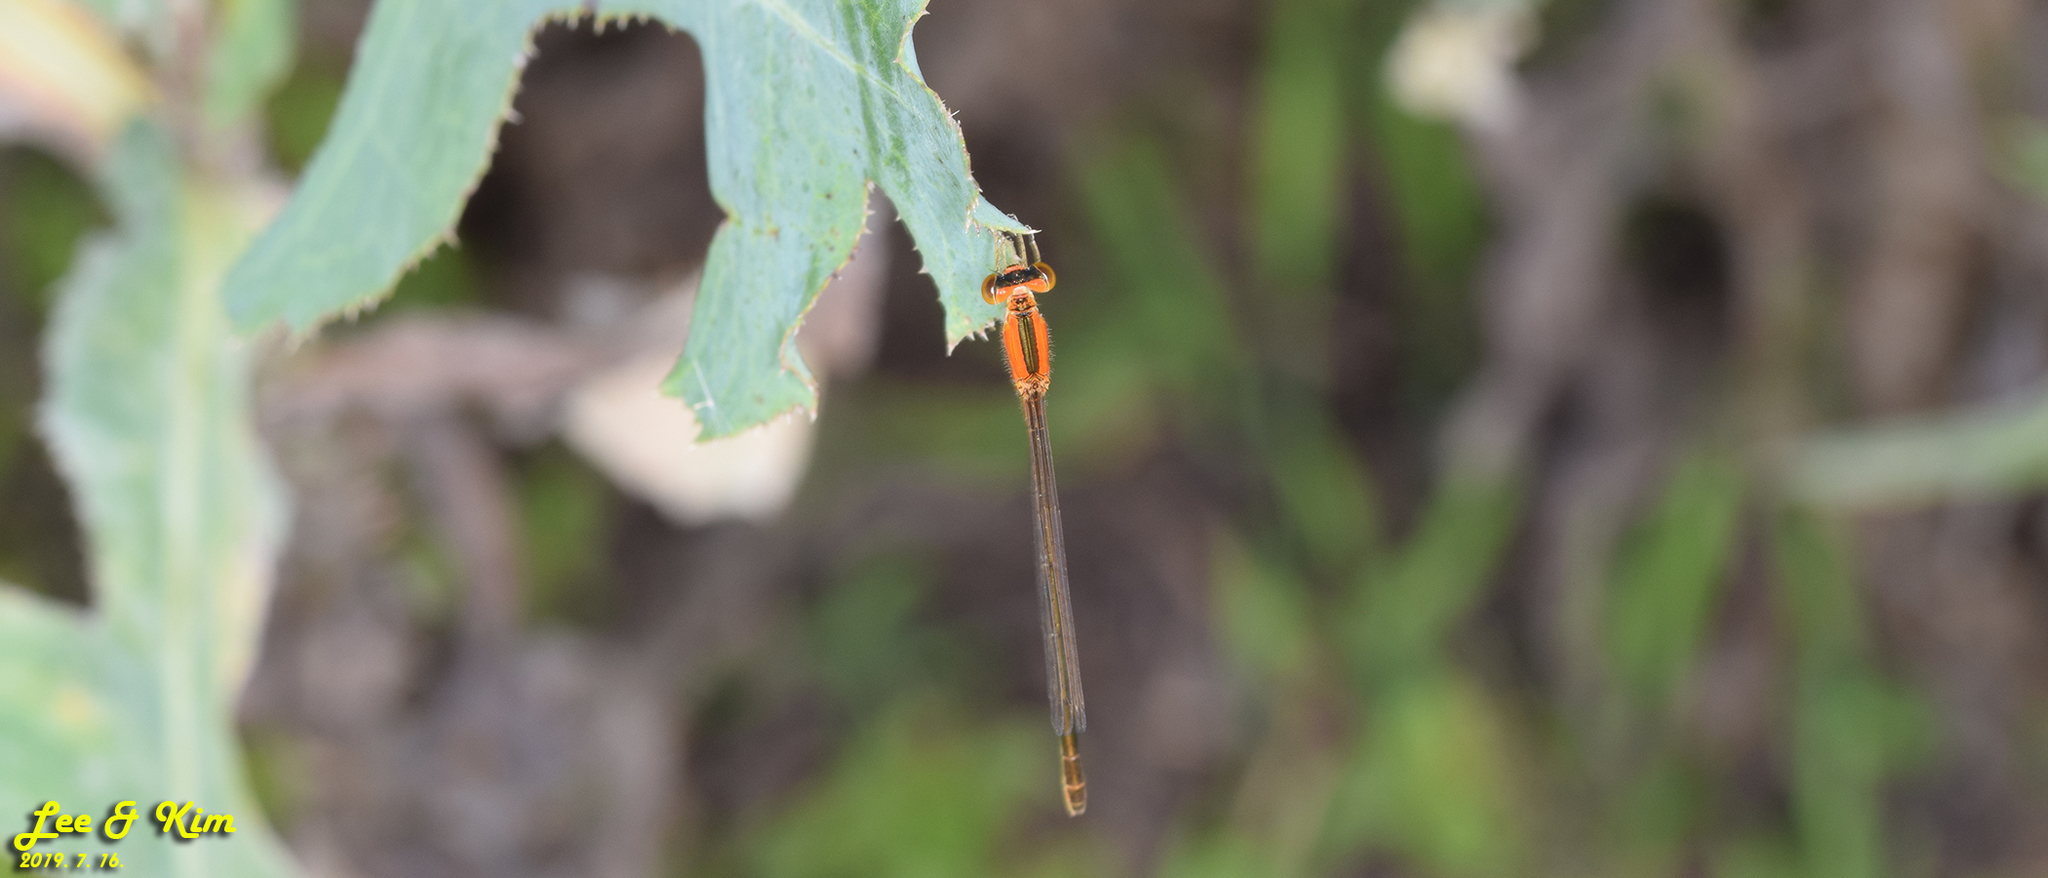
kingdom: Animalia
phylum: Arthropoda
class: Insecta
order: Odonata
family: Coenagrionidae
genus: Ischnura
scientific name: Ischnura asiatica
